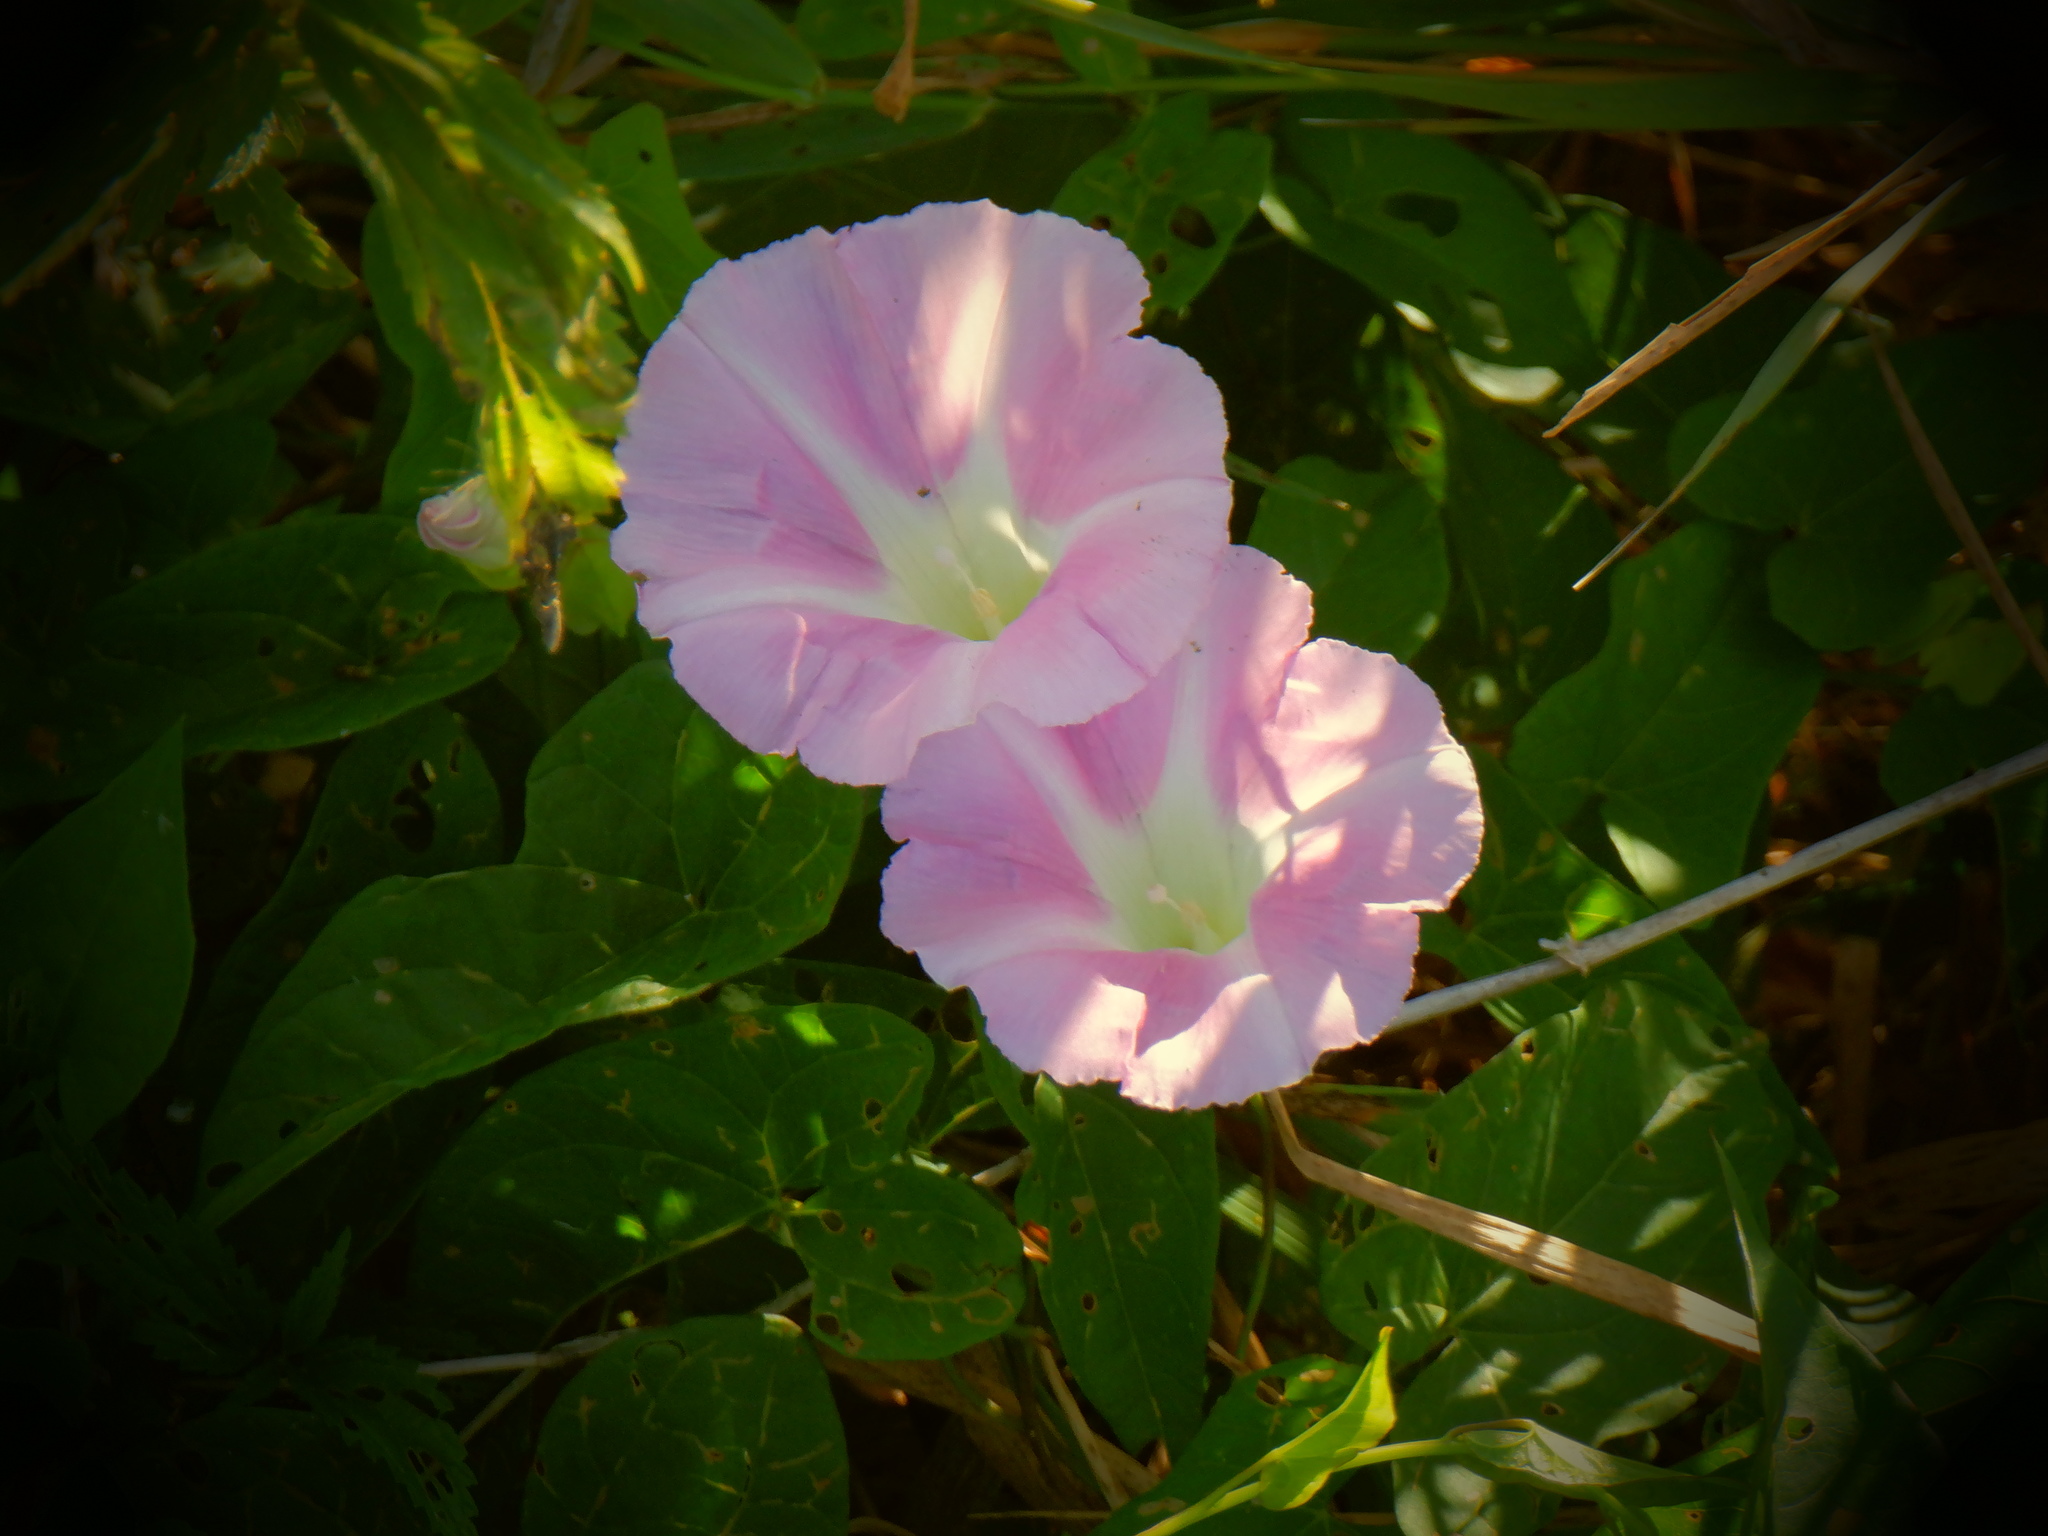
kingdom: Plantae
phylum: Tracheophyta
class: Magnoliopsida
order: Solanales
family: Convolvulaceae
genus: Calystegia
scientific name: Calystegia sepium
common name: Hedge bindweed
